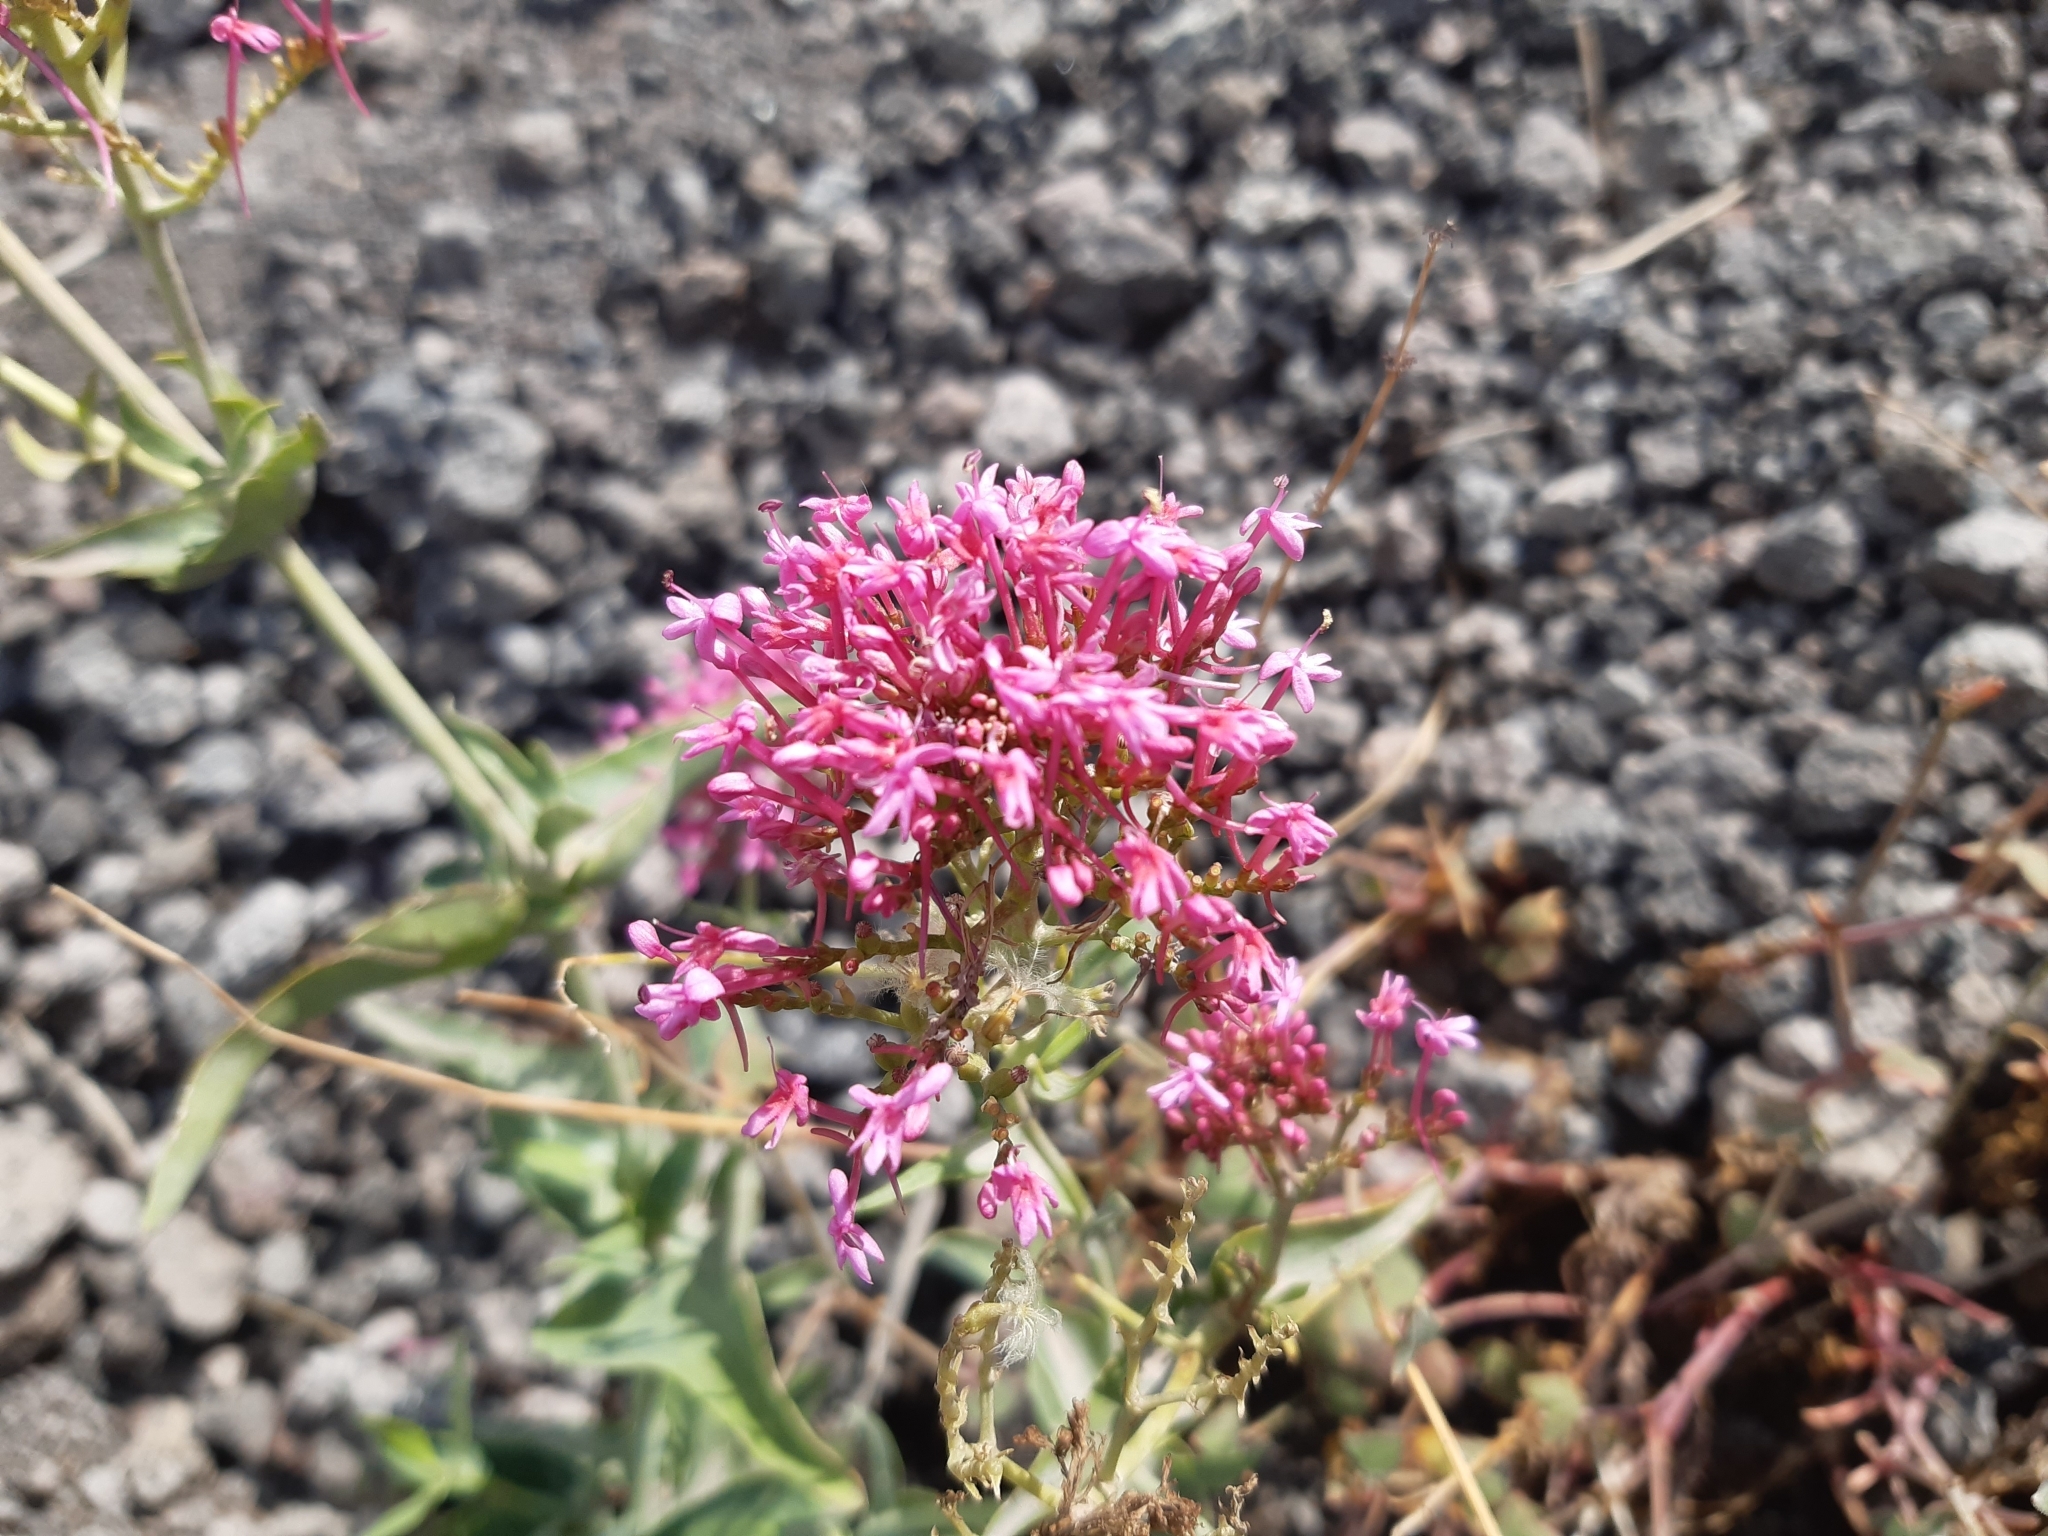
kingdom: Plantae
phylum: Tracheophyta
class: Magnoliopsida
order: Dipsacales
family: Caprifoliaceae
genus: Centranthus
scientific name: Centranthus ruber
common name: Red valerian
